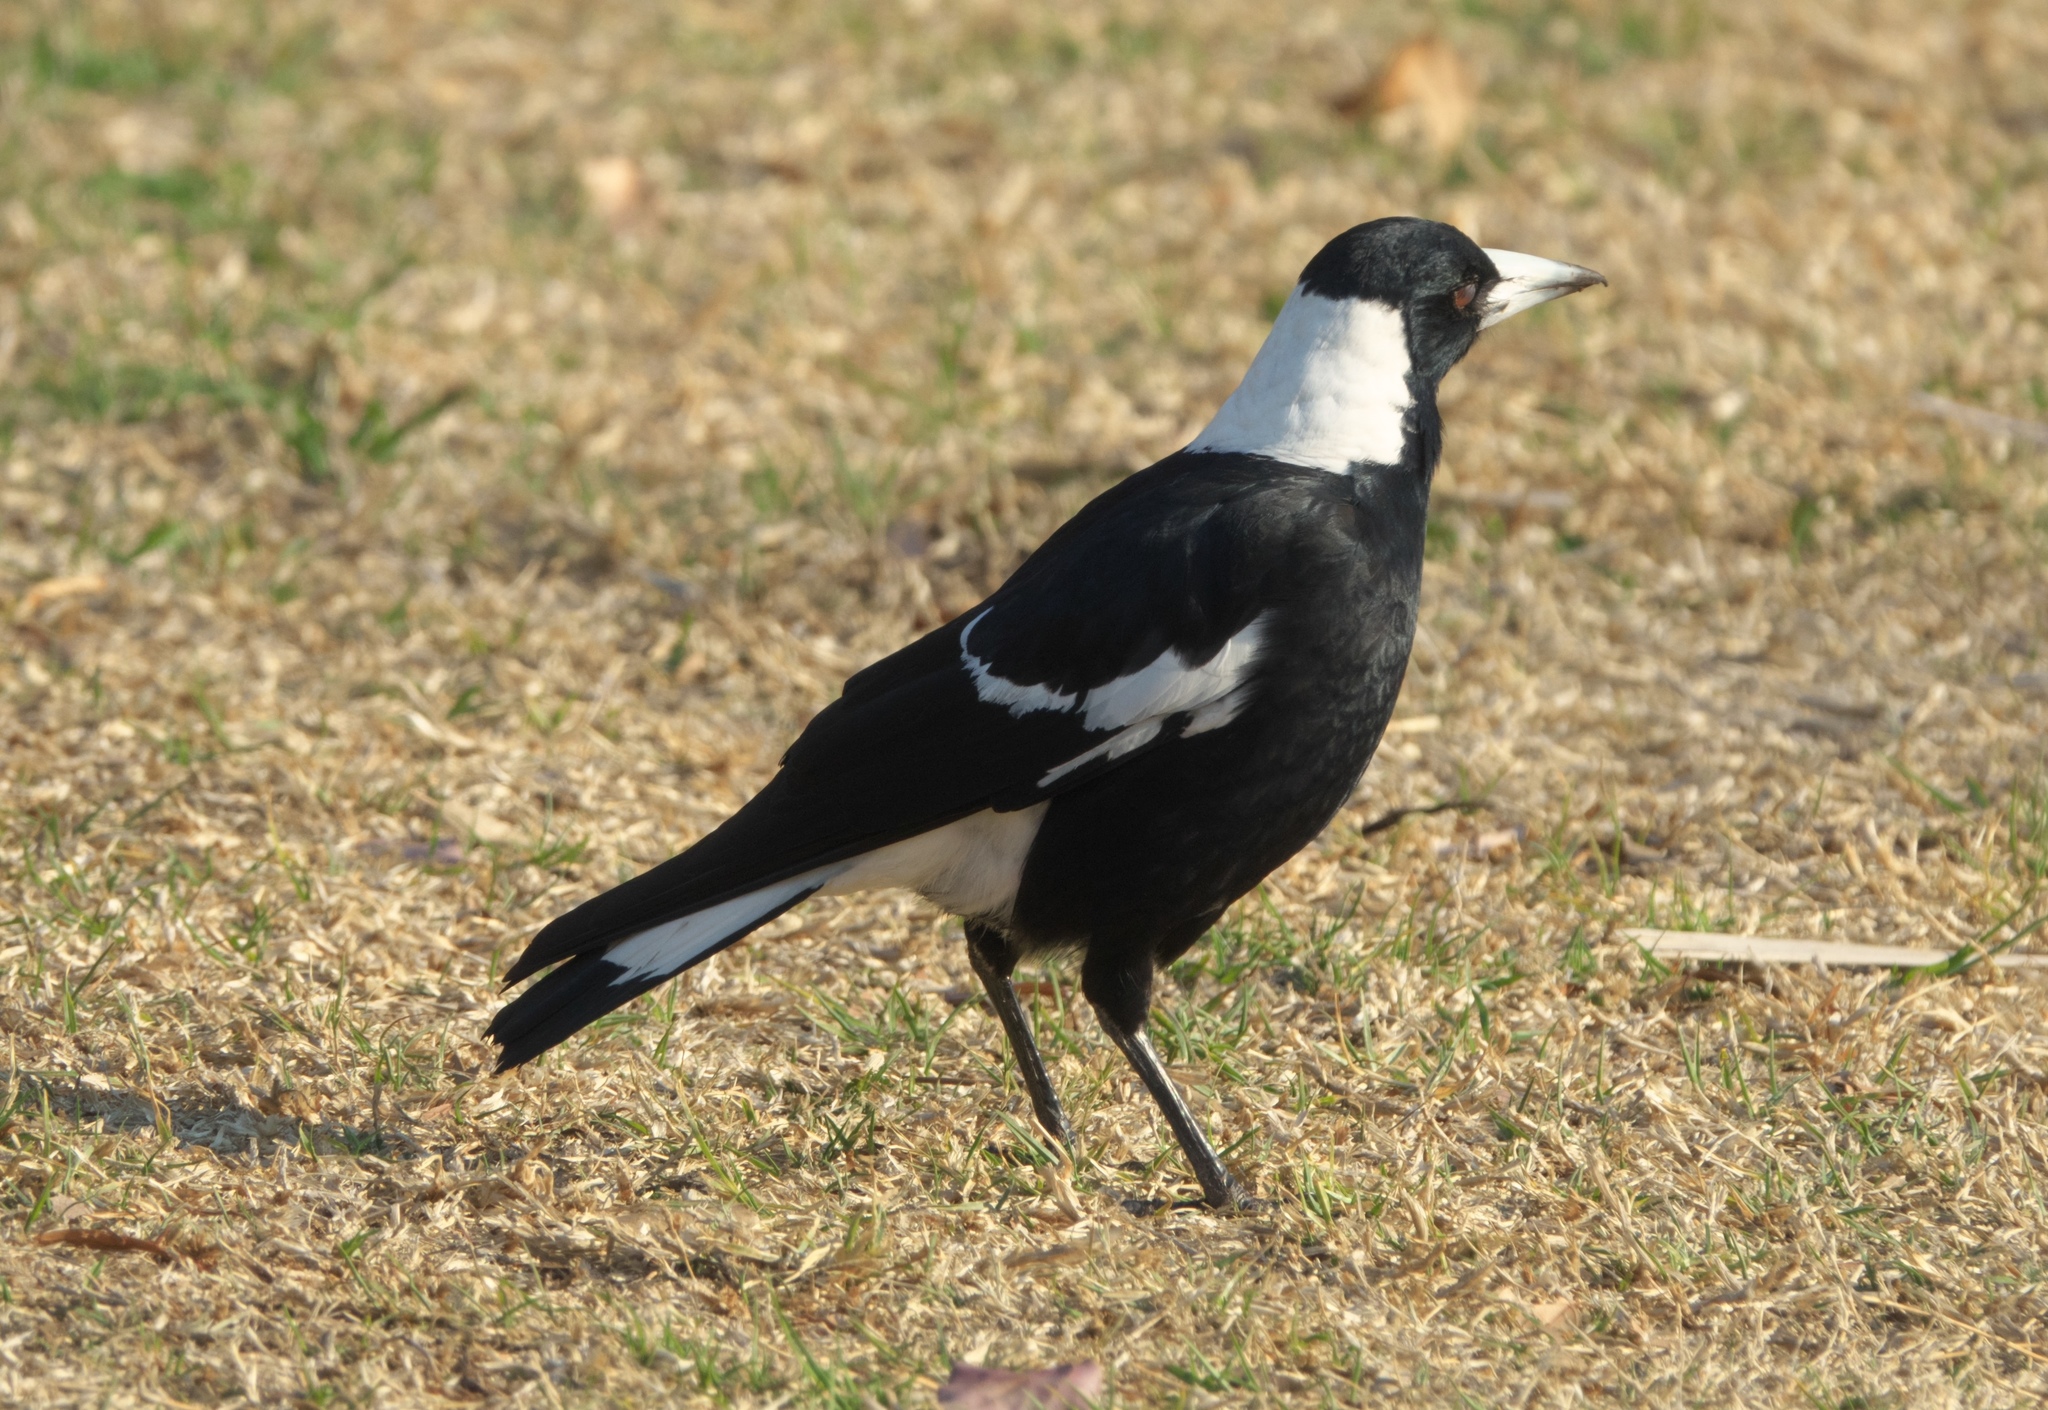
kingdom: Animalia
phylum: Chordata
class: Aves
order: Passeriformes
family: Cracticidae
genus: Gymnorhina
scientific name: Gymnorhina tibicen
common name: Australian magpie
